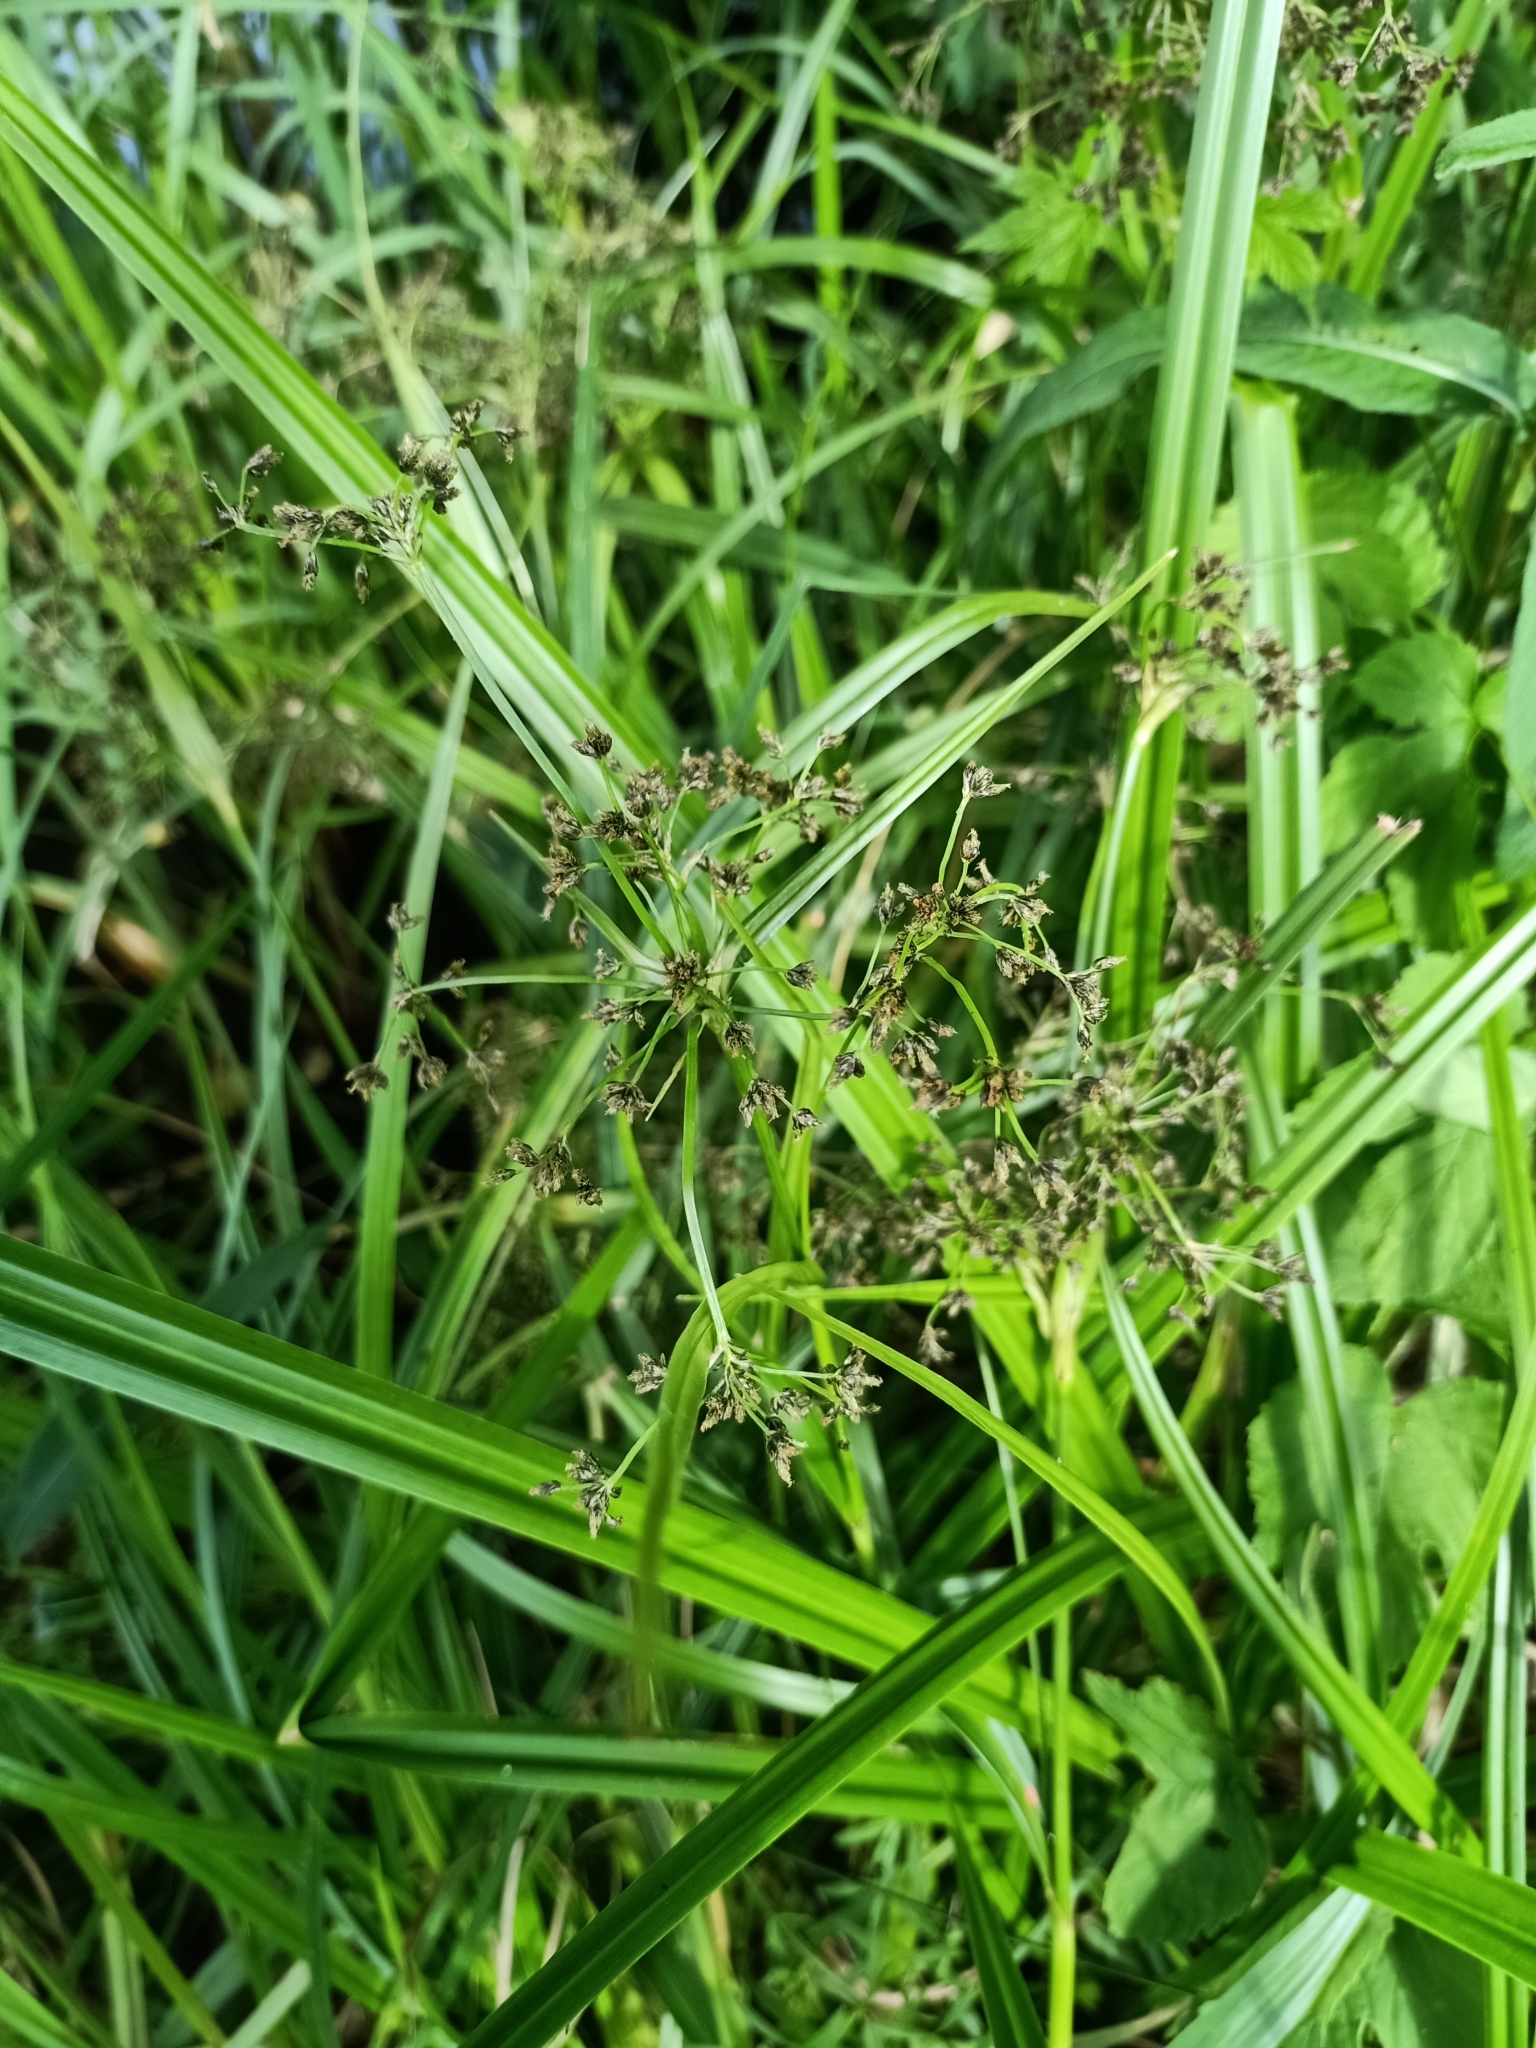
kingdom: Plantae
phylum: Tracheophyta
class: Liliopsida
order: Poales
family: Cyperaceae
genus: Scirpus
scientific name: Scirpus sylvaticus
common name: Wood club-rush
